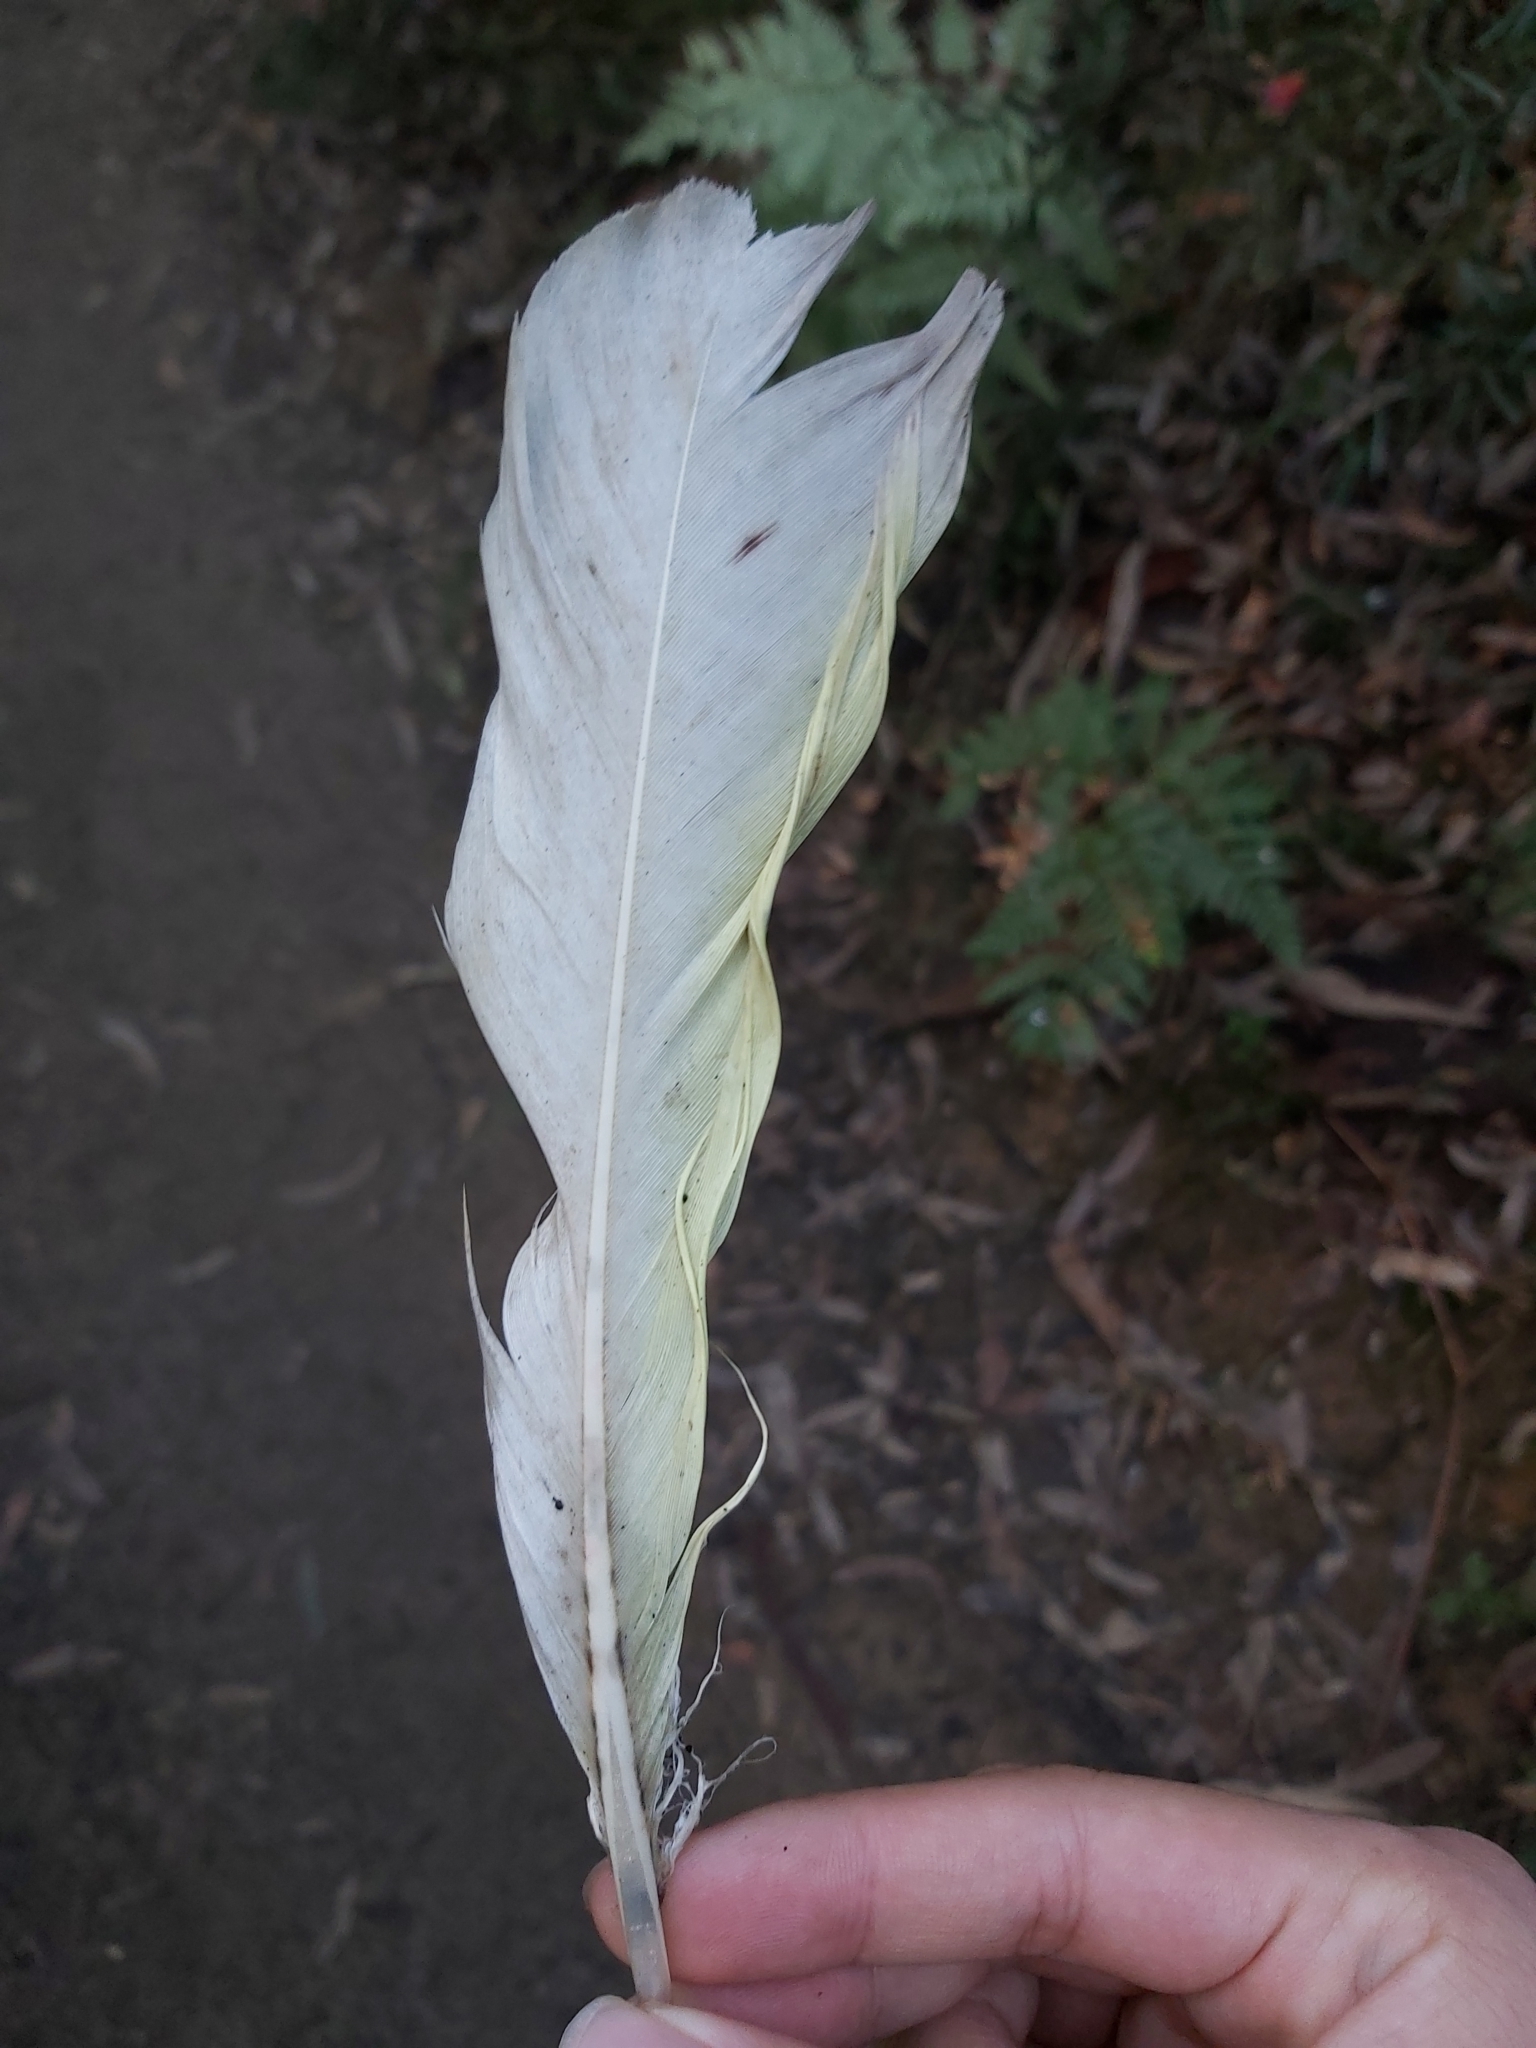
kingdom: Animalia
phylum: Chordata
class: Aves
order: Psittaciformes
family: Psittacidae
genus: Cacatua
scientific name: Cacatua galerita
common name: Sulphur-crested cockatoo
